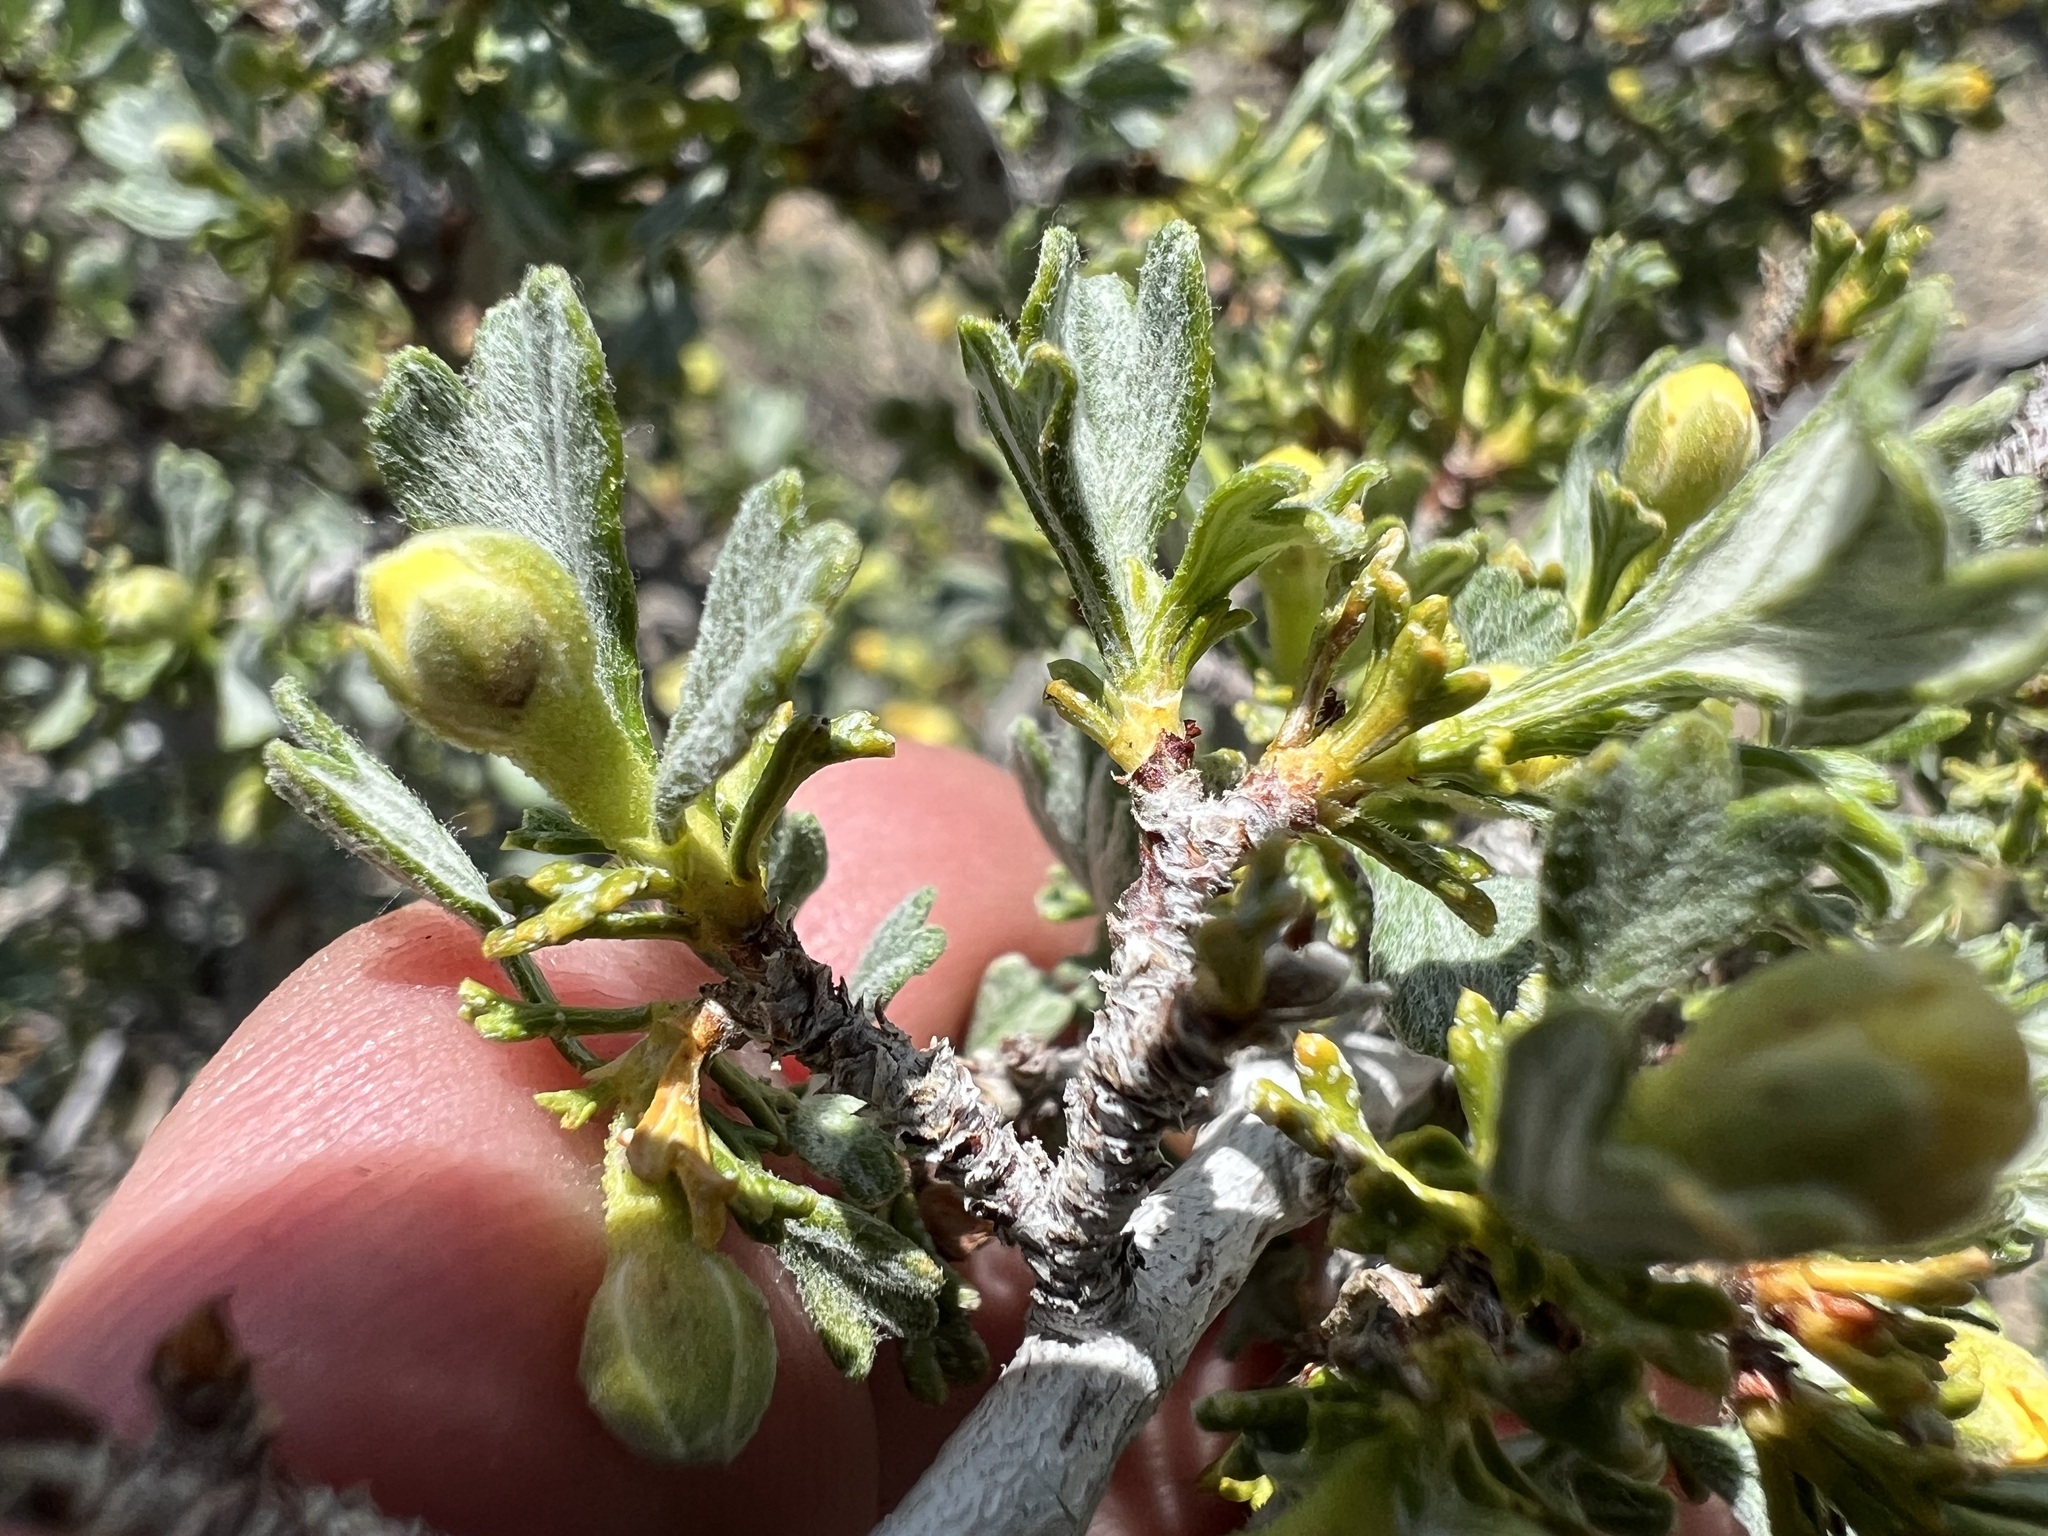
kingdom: Plantae
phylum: Tracheophyta
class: Magnoliopsida
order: Rosales
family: Rosaceae
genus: Purshia
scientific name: Purshia tridentata
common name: Antelope bitterbrush
